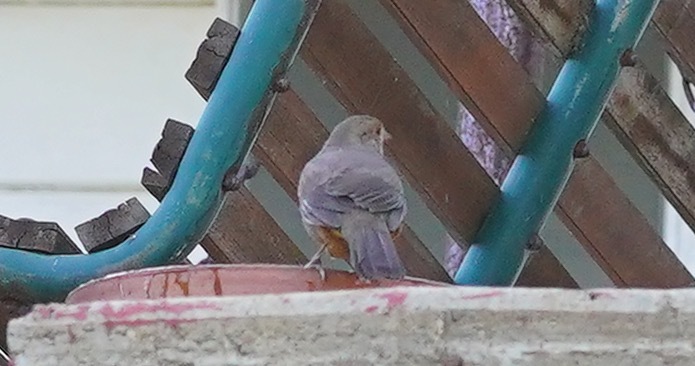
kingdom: Animalia
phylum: Chordata
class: Aves
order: Passeriformes
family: Passerellidae
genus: Melozone
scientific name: Melozone crissalis
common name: California towhee
